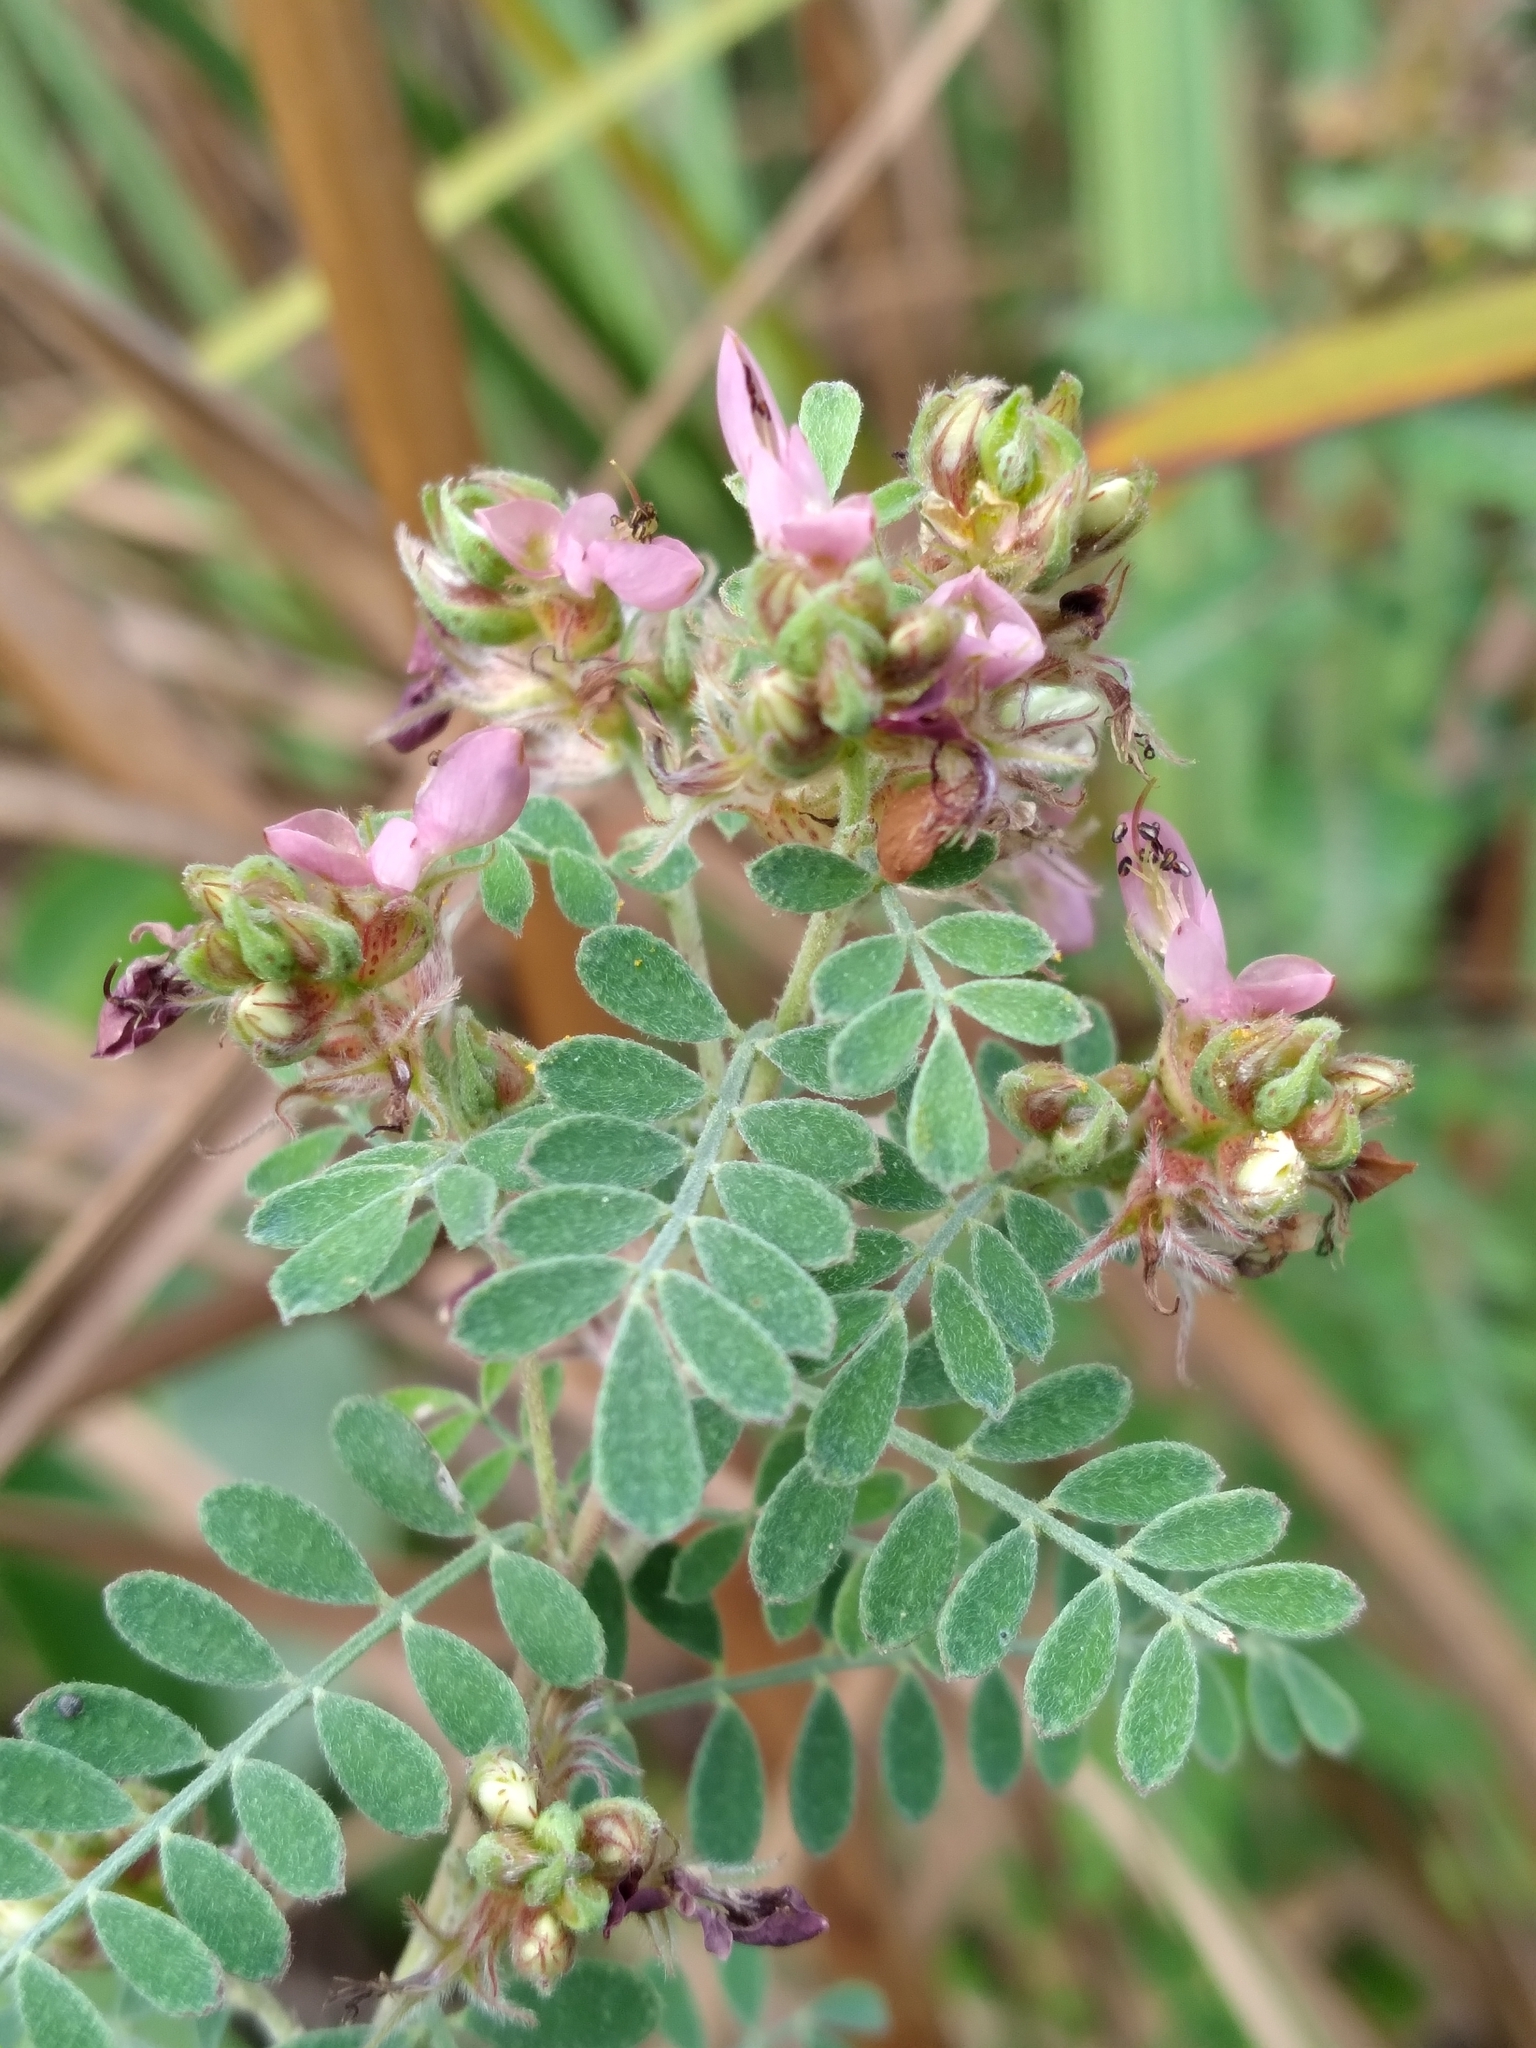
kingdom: Plantae
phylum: Tracheophyta
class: Magnoliopsida
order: Fabales
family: Fabaceae
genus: Dalea
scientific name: Dalea floridana
